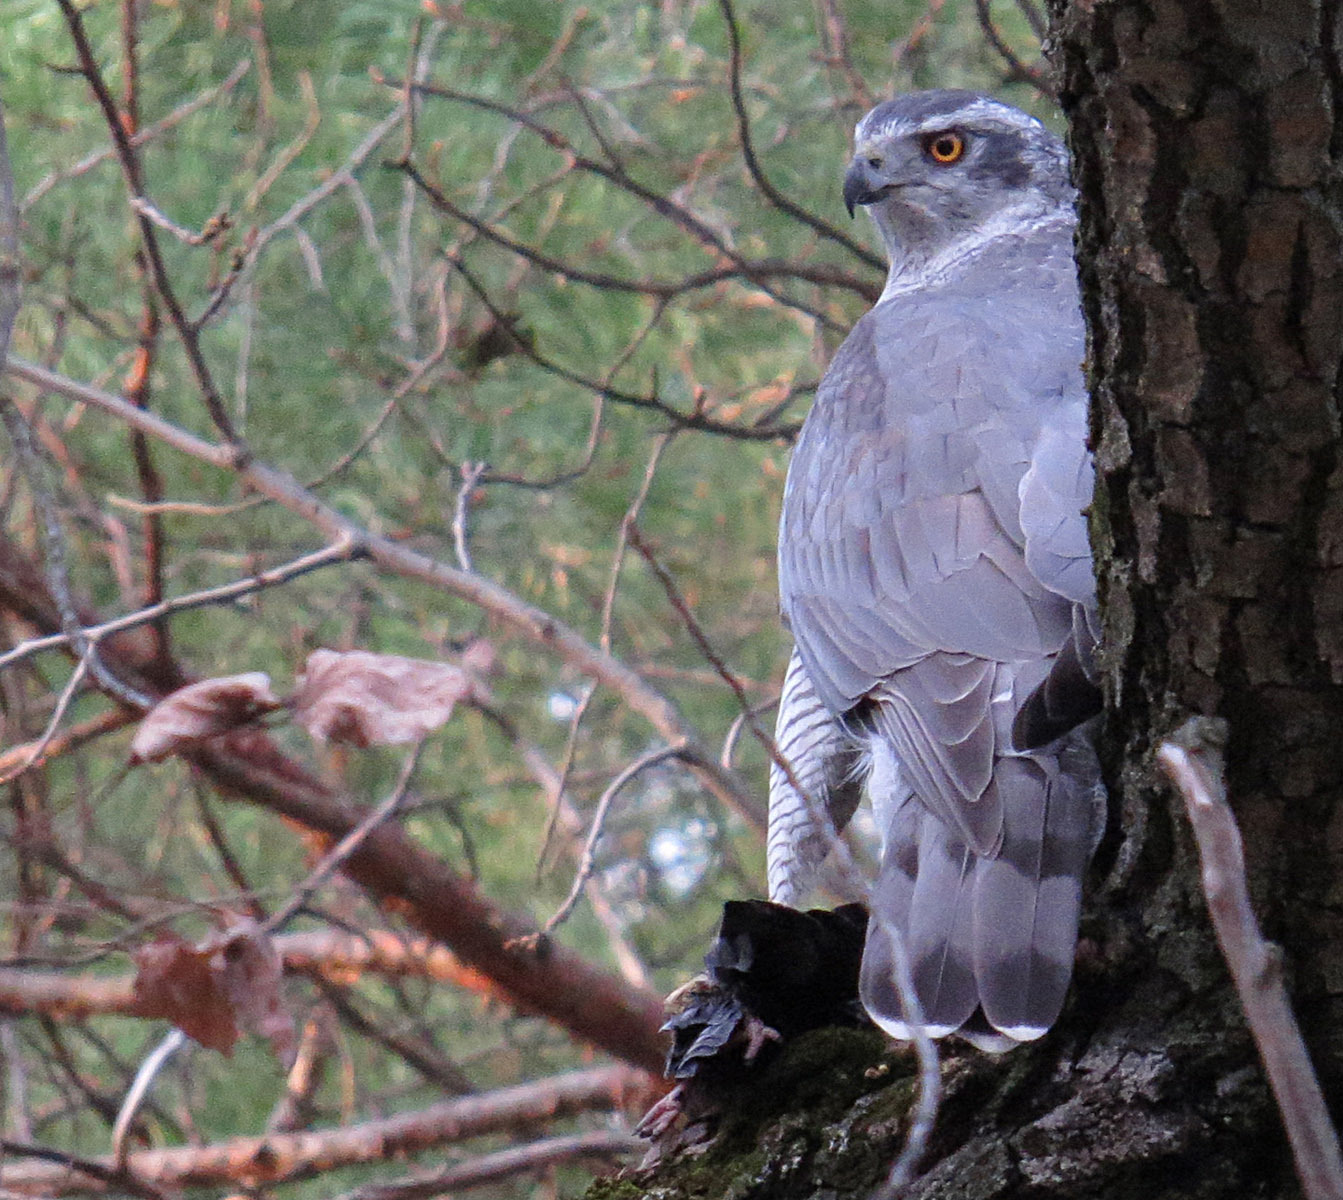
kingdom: Animalia
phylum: Chordata
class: Aves
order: Accipitriformes
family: Accipitridae
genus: Accipiter
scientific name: Accipiter gentilis
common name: Northern goshawk
